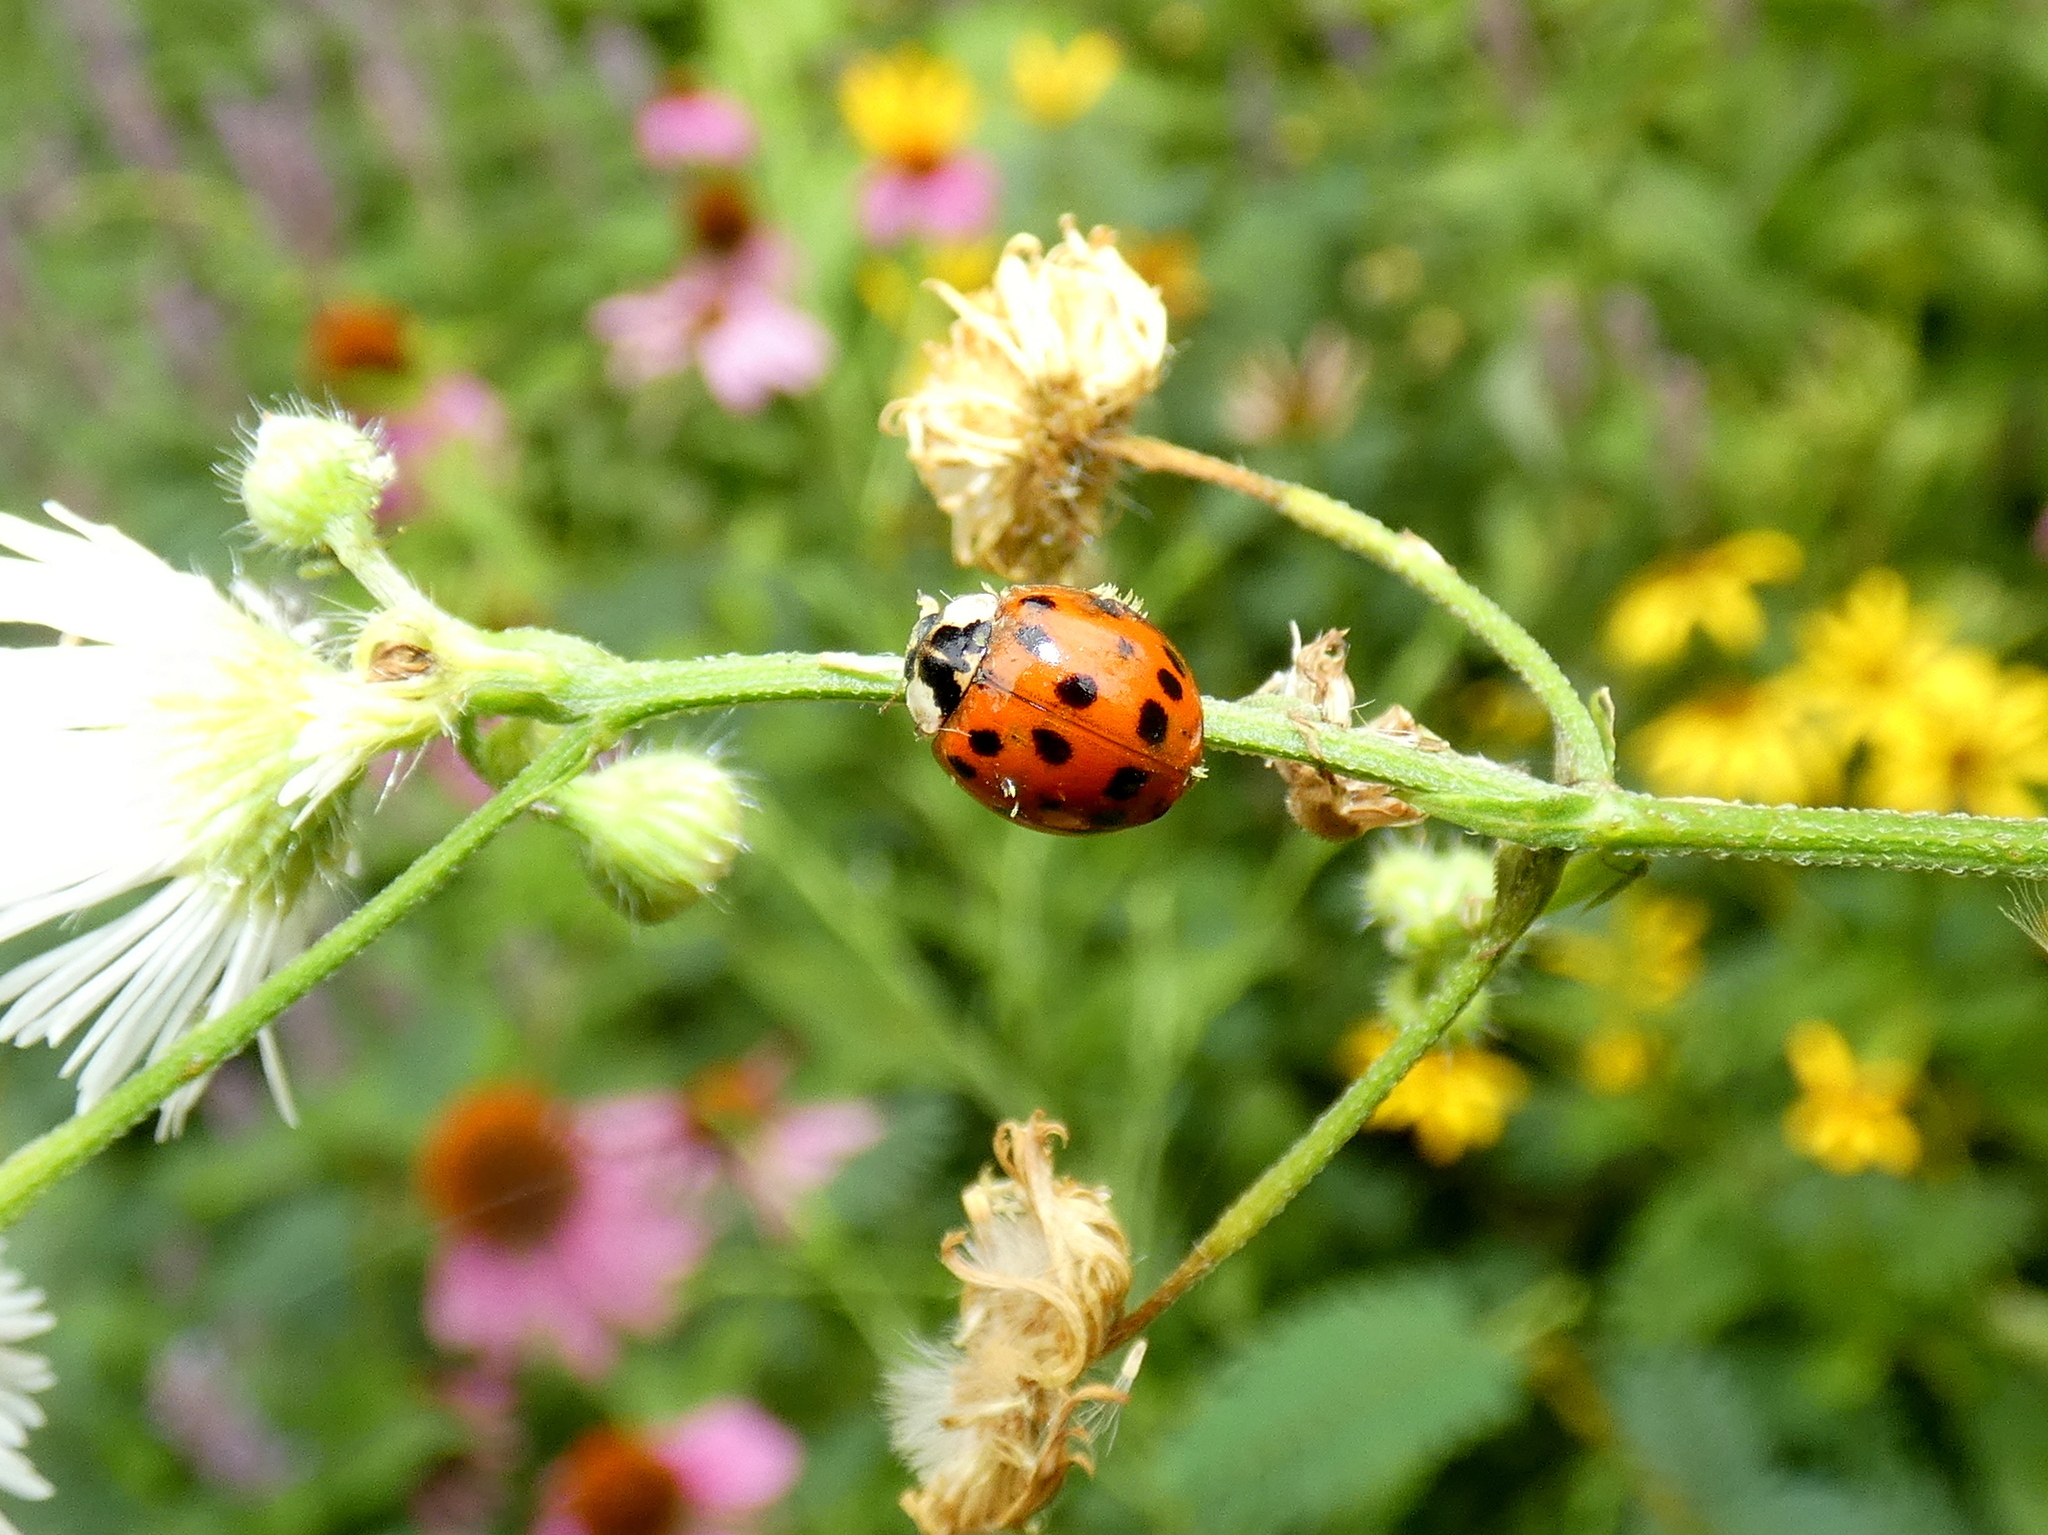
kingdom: Fungi
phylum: Ascomycota
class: Laboulbeniomycetes
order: Laboulbeniales
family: Laboulbeniaceae
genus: Hesperomyces
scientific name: Hesperomyces harmoniae
